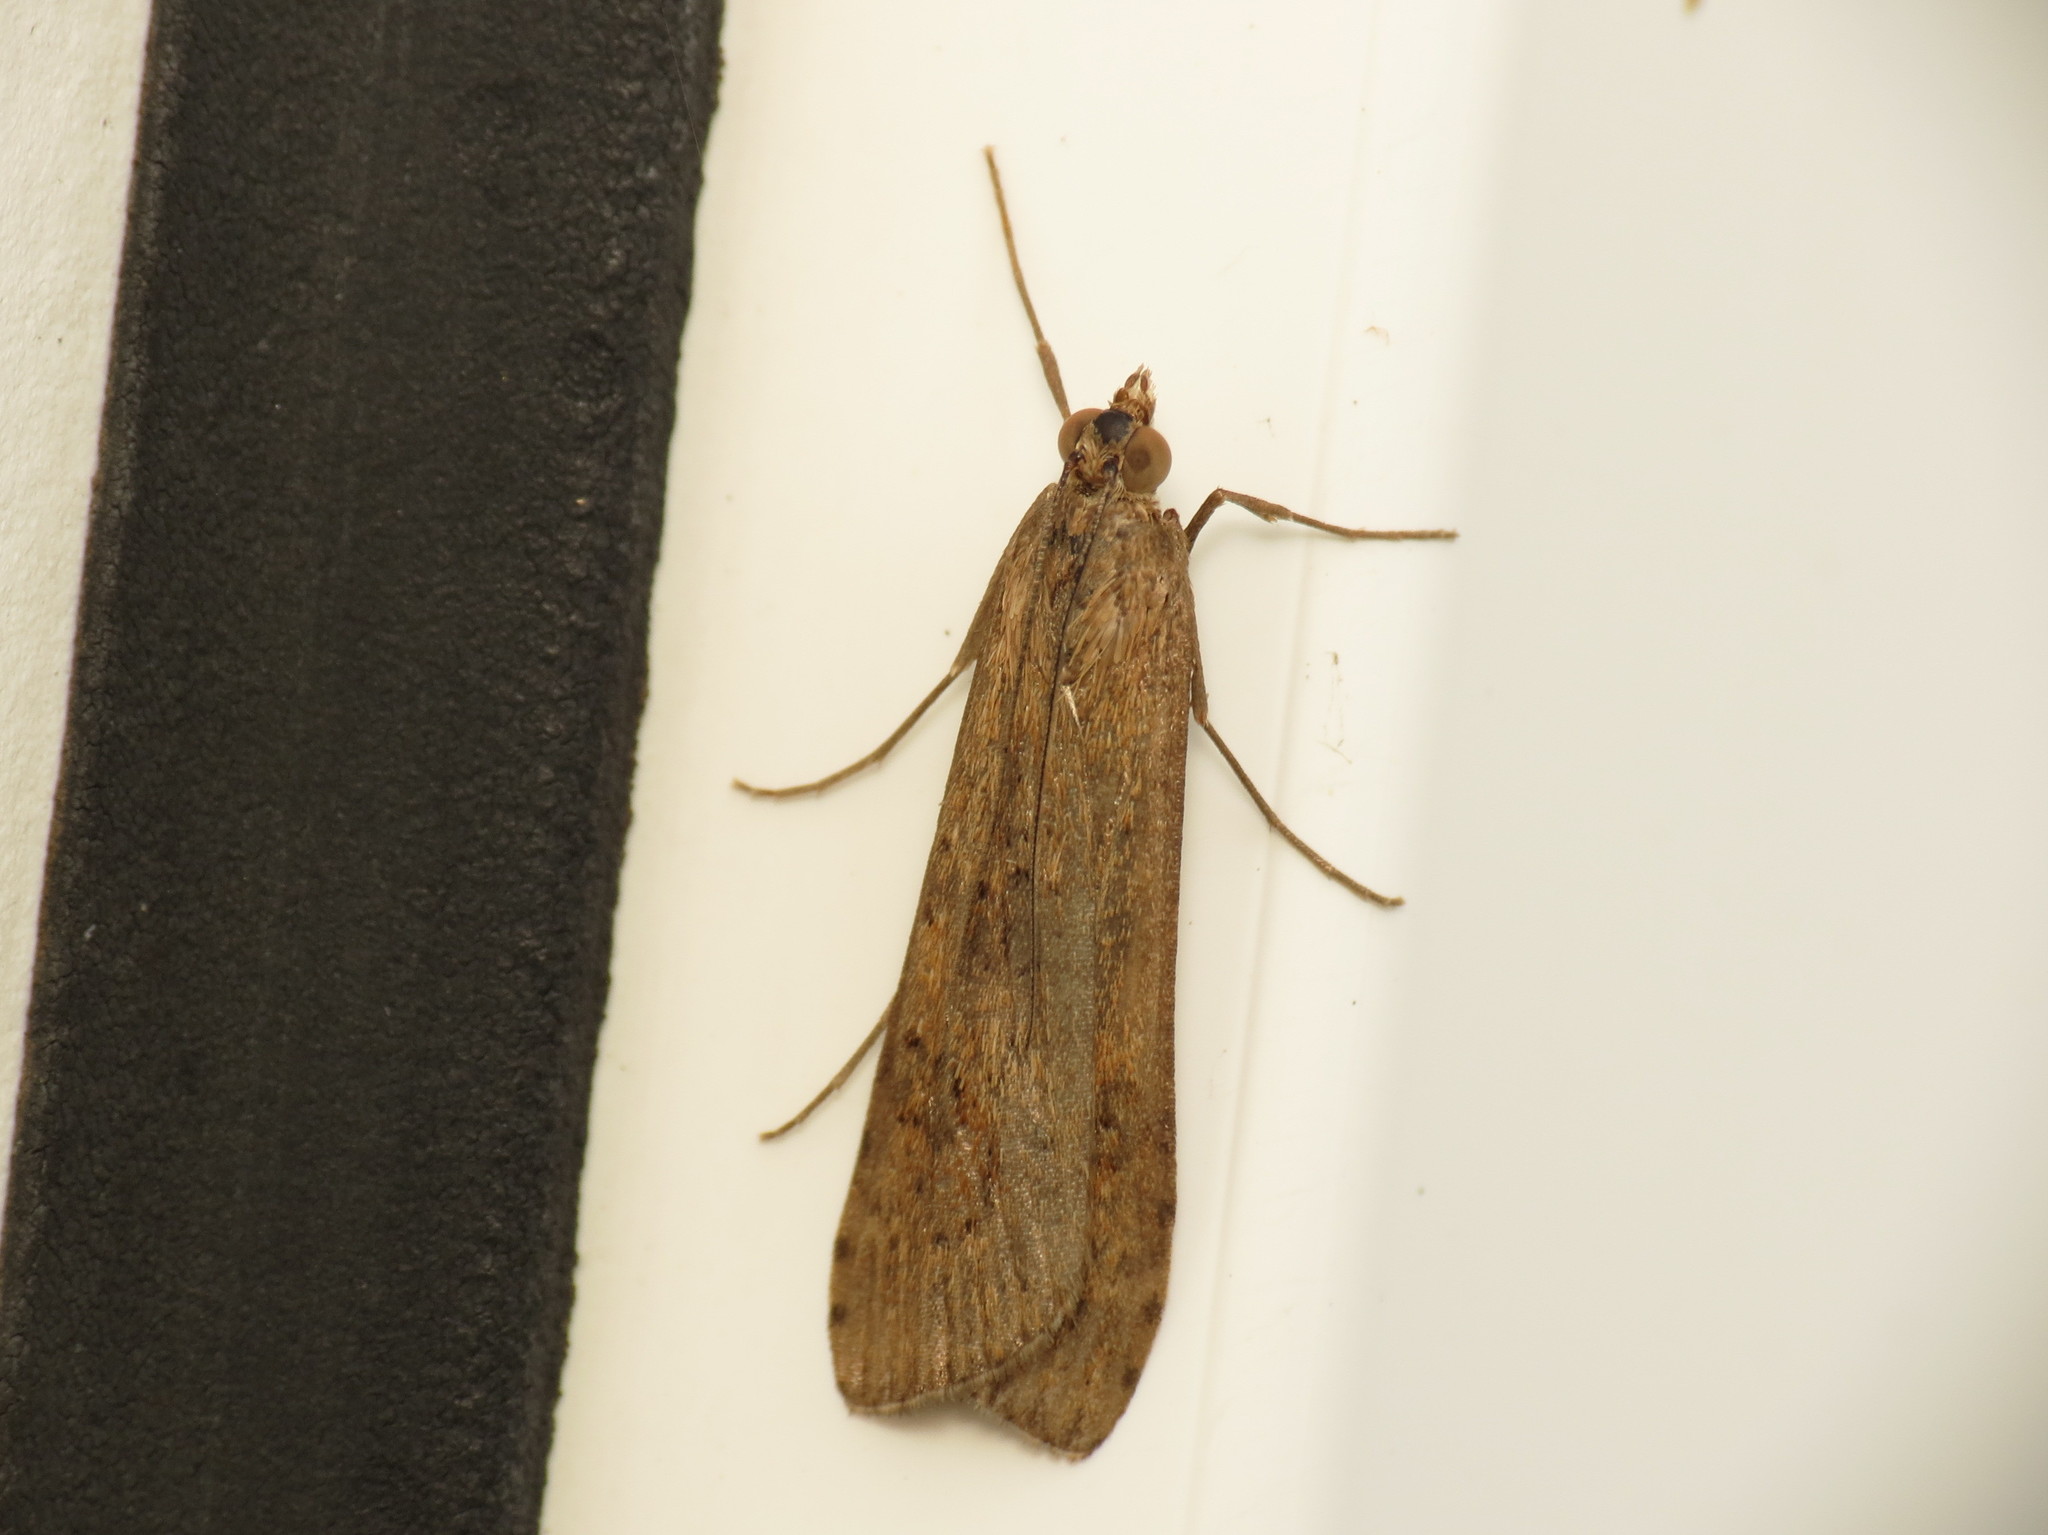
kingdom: Animalia
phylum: Arthropoda
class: Insecta
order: Lepidoptera
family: Crambidae
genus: Nomophila
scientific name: Nomophila noctuella
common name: Rush veneer
